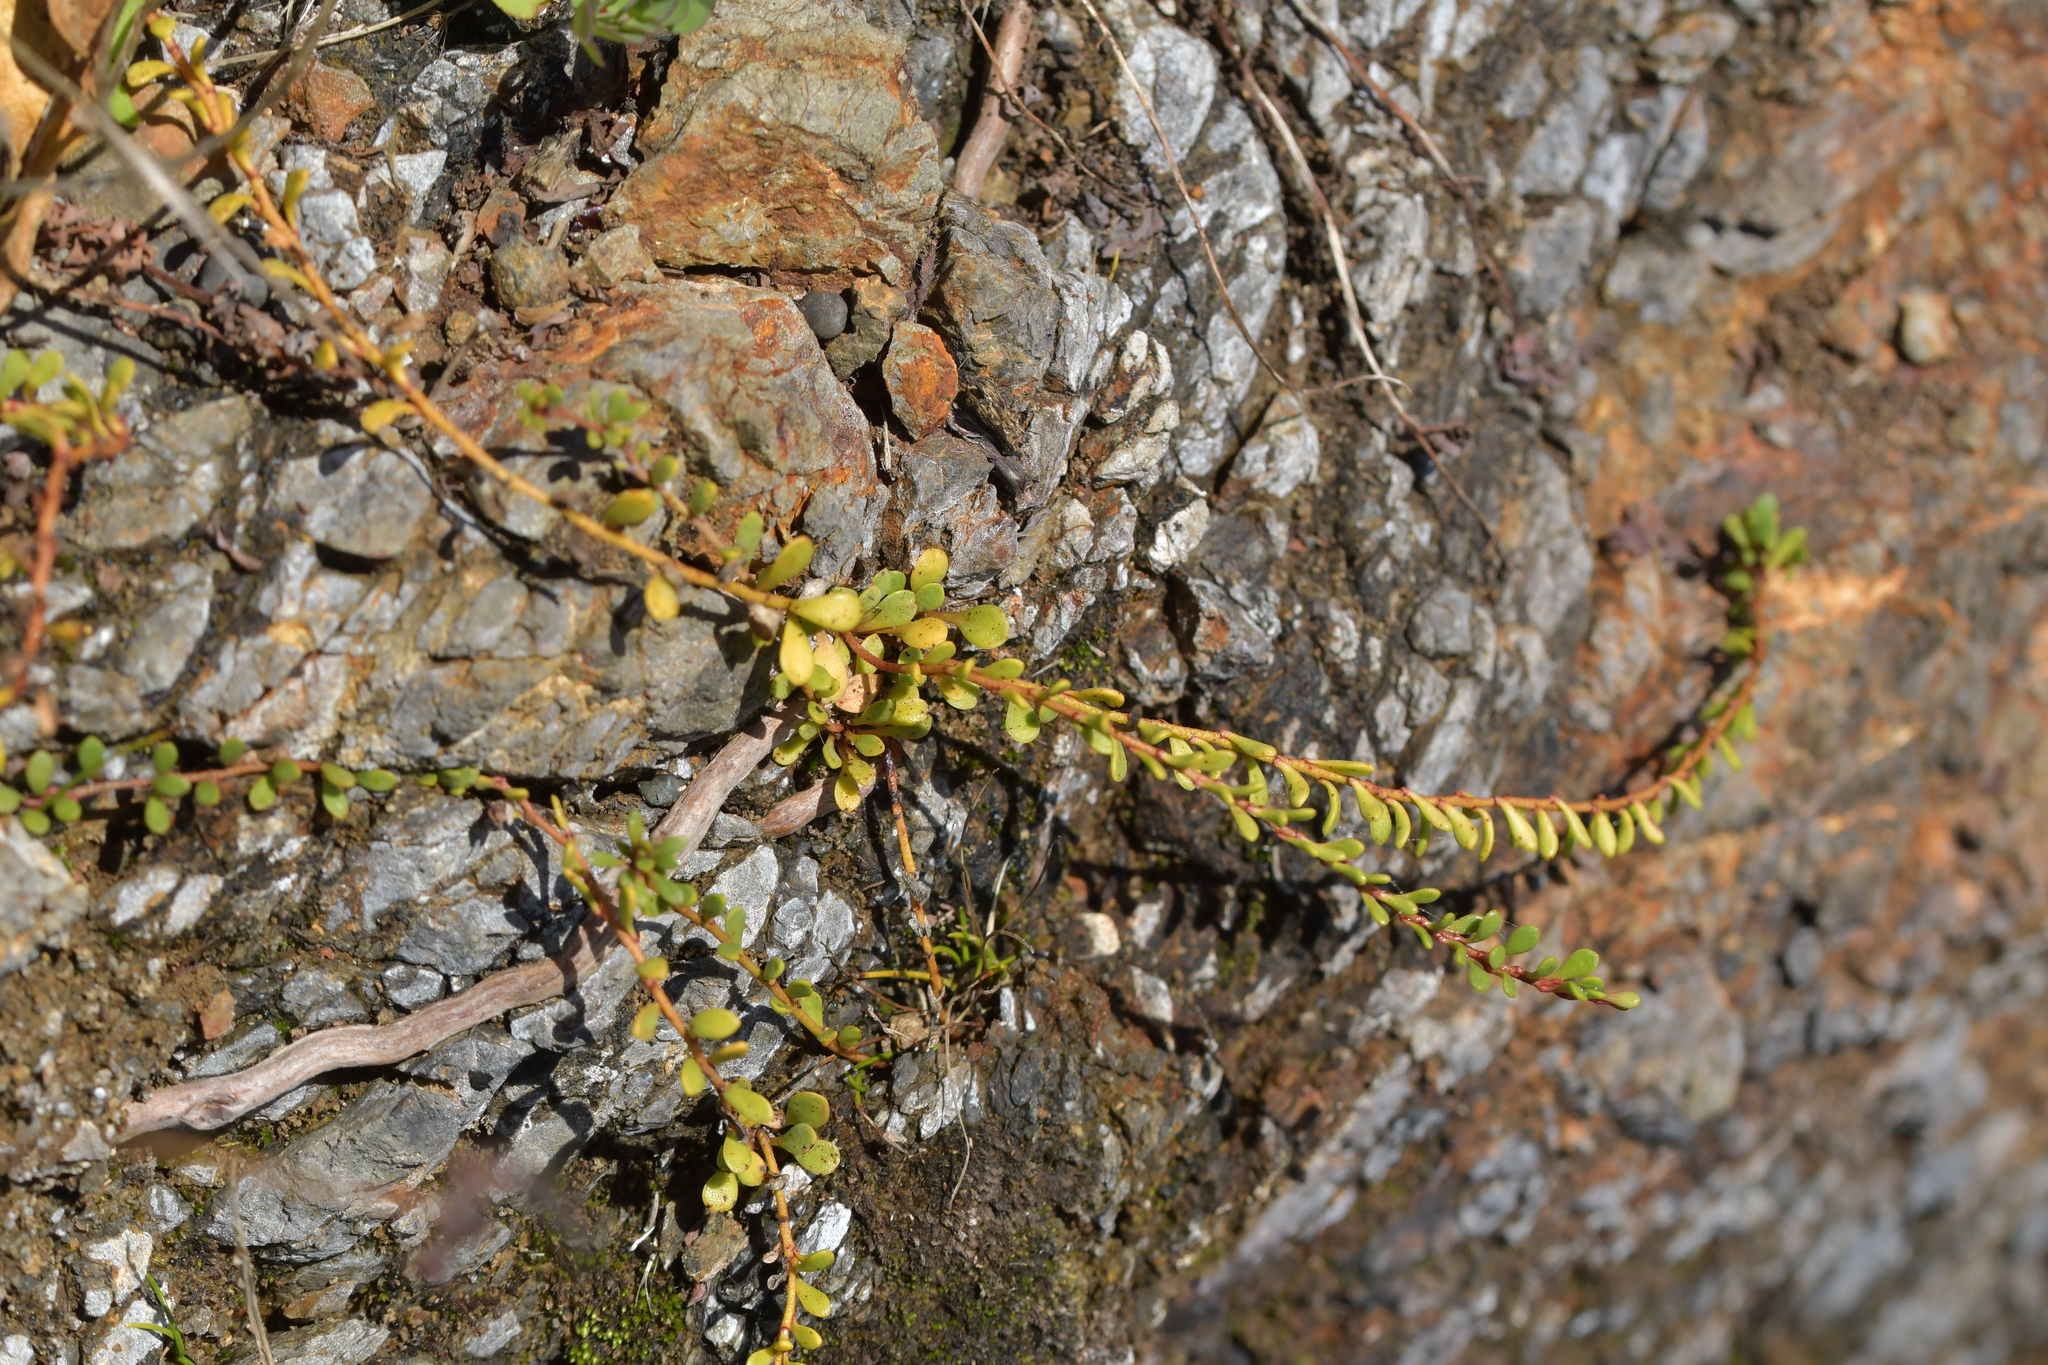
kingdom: Plantae
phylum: Tracheophyta
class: Magnoliopsida
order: Ericales
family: Primulaceae
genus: Samolus
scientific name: Samolus repens
